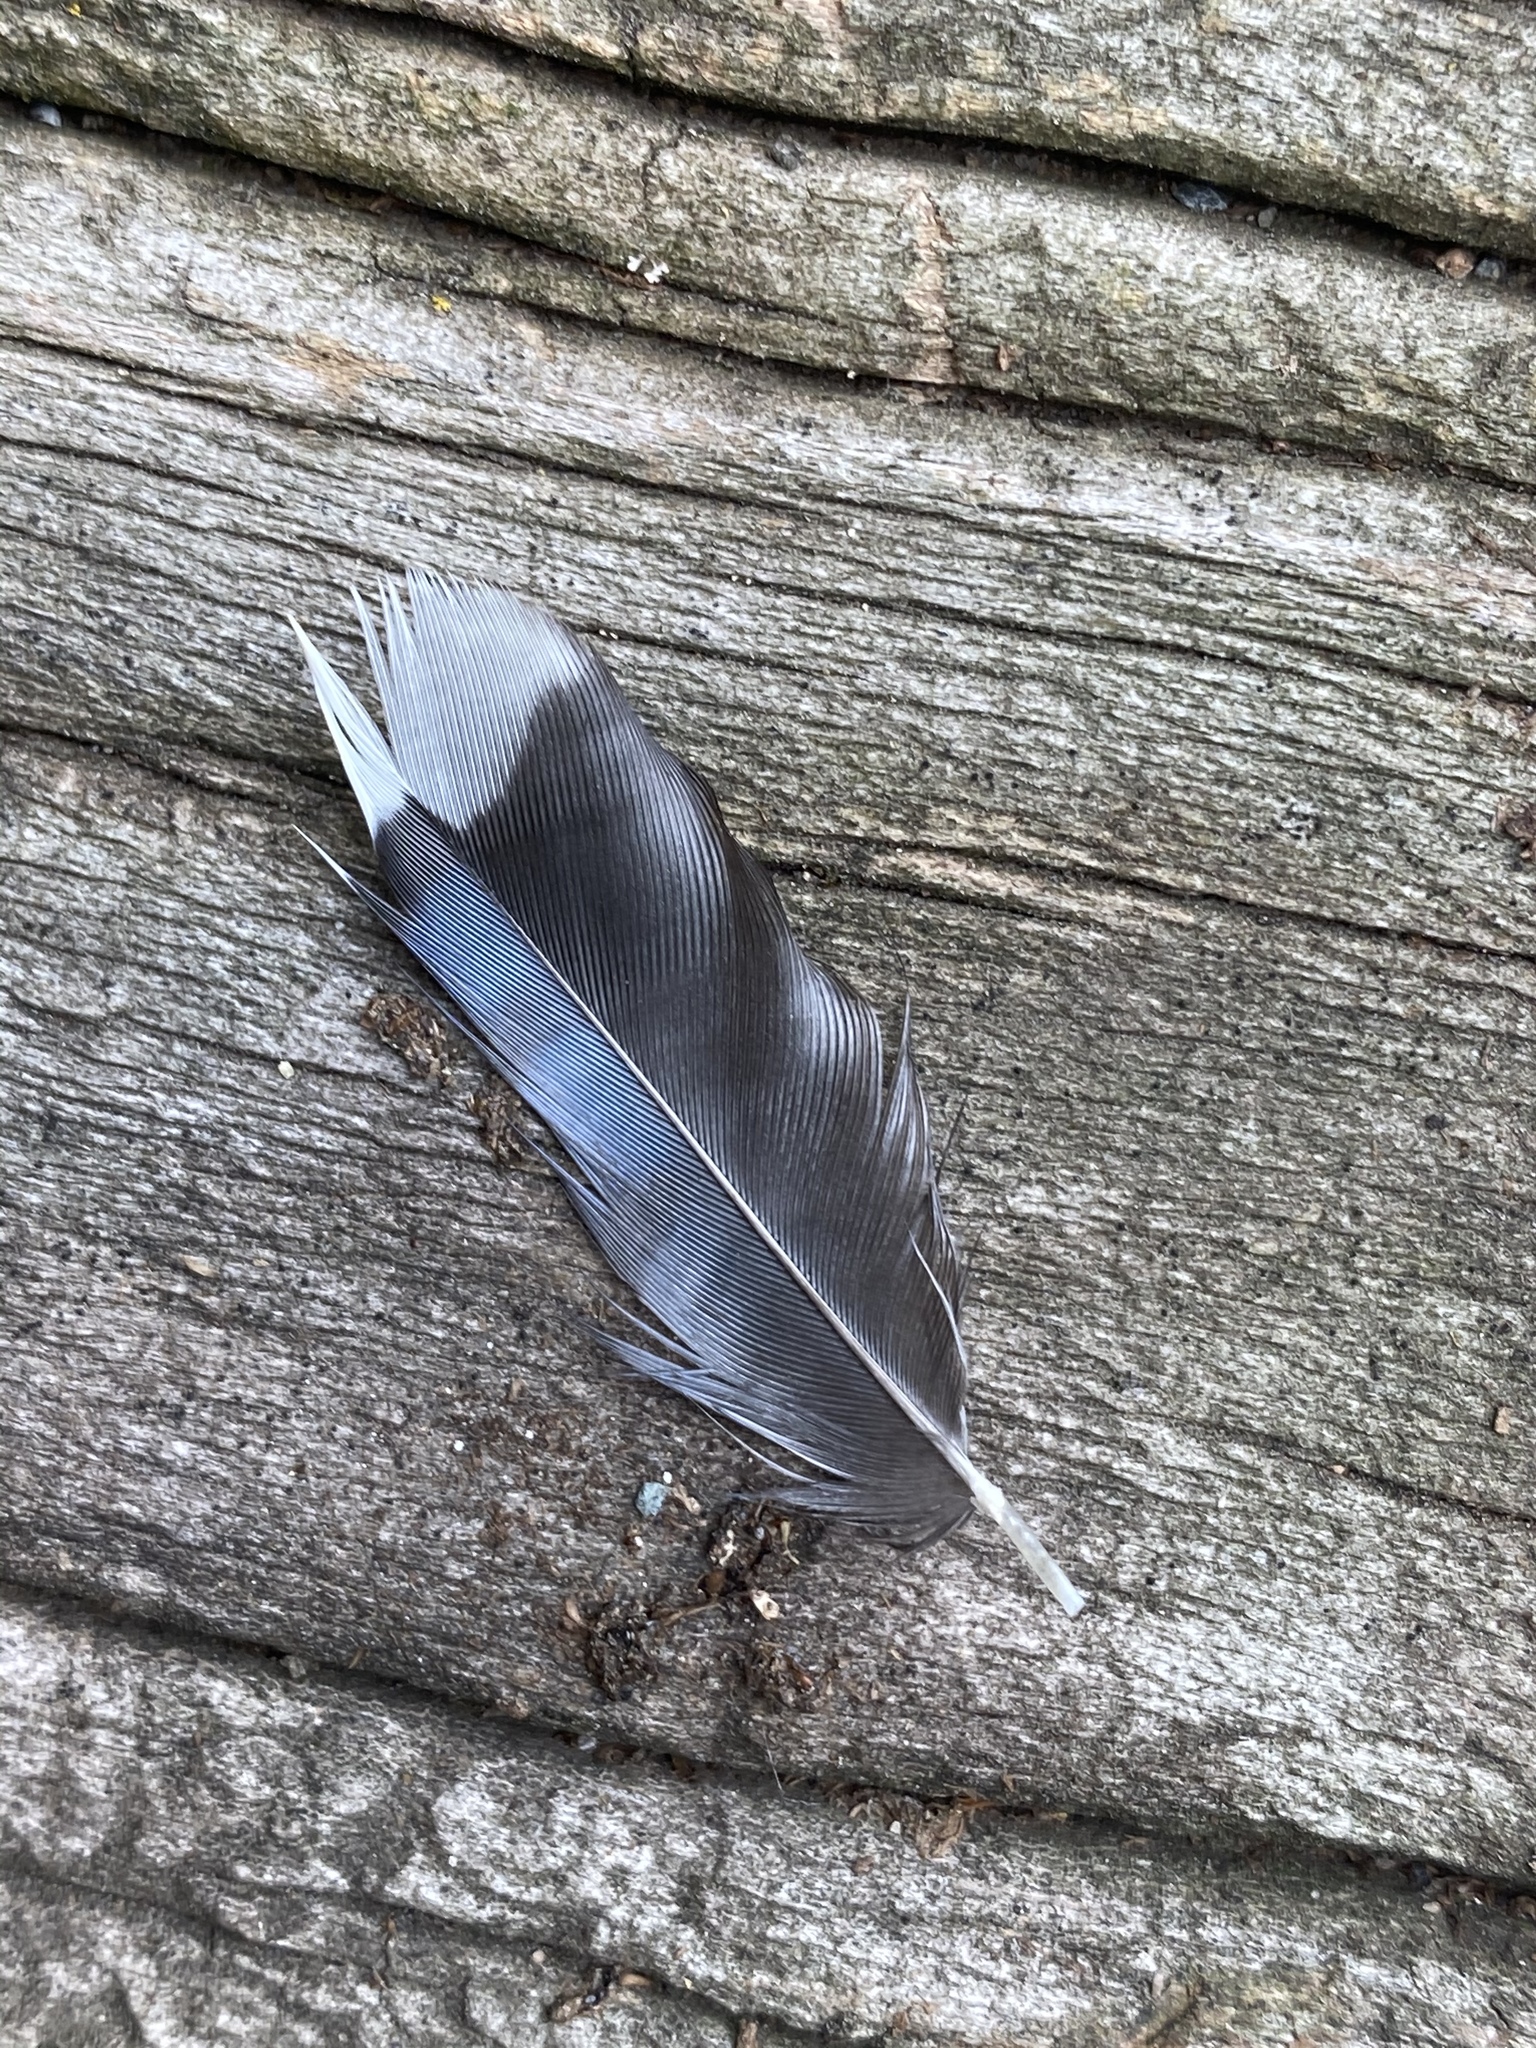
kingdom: Animalia
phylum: Chordata
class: Aves
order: Passeriformes
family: Corvidae
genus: Cyanocitta
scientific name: Cyanocitta cristata
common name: Blue jay
